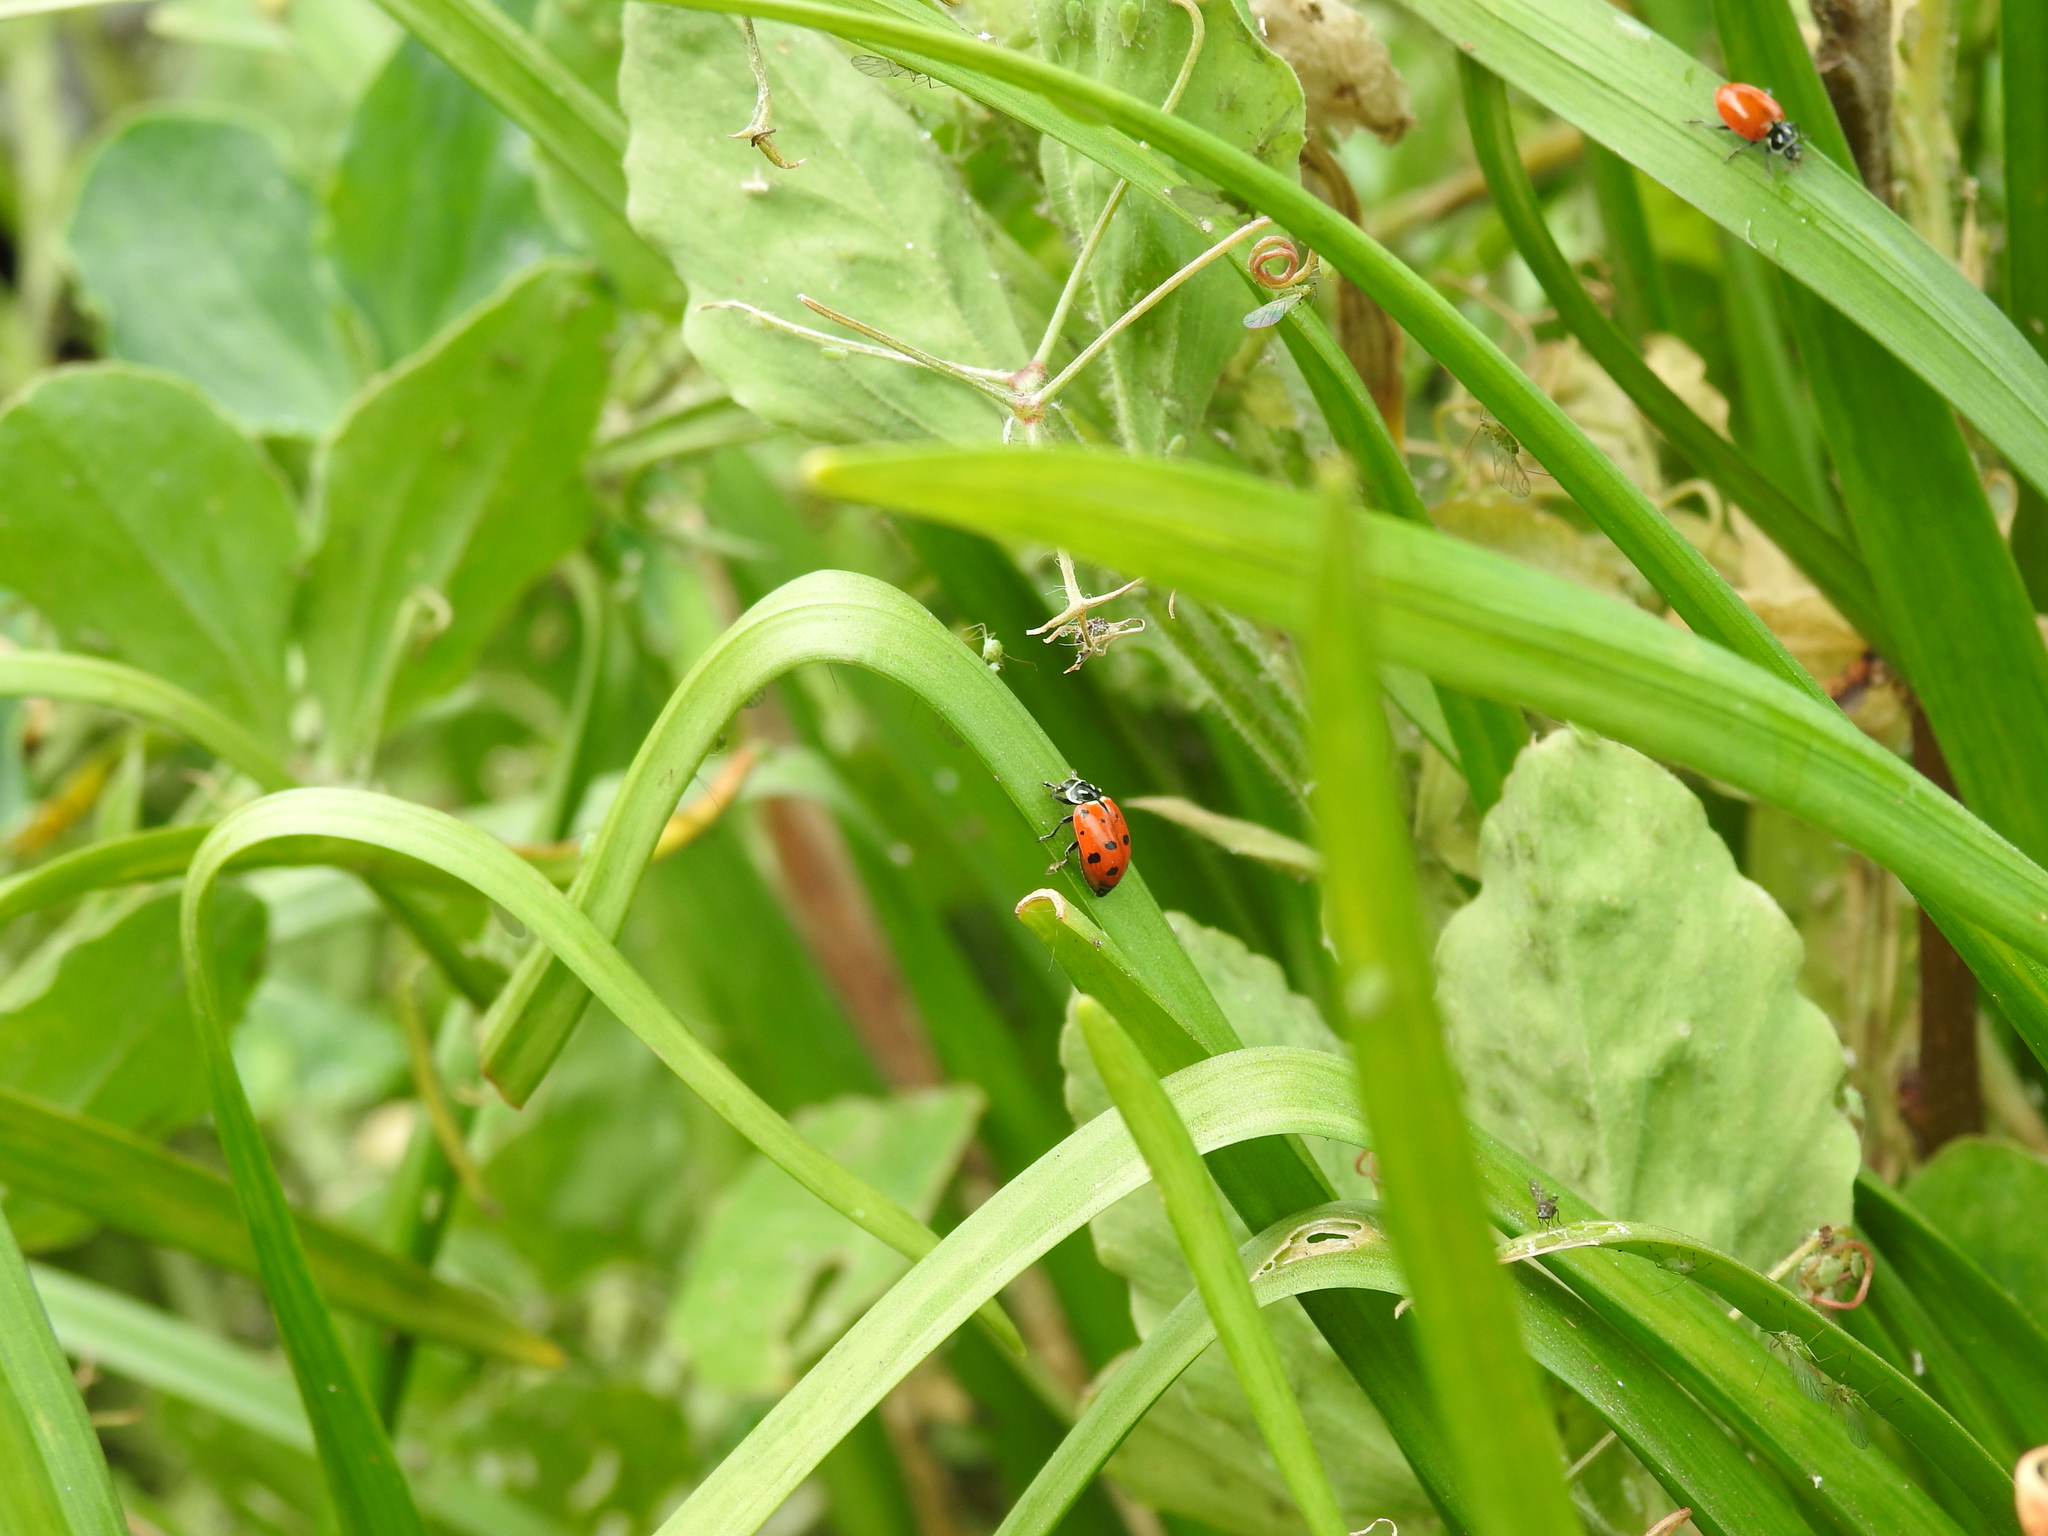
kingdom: Animalia
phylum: Arthropoda
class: Insecta
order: Coleoptera
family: Coccinellidae
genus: Hippodamia
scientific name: Hippodamia convergens
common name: Convergent lady beetle
